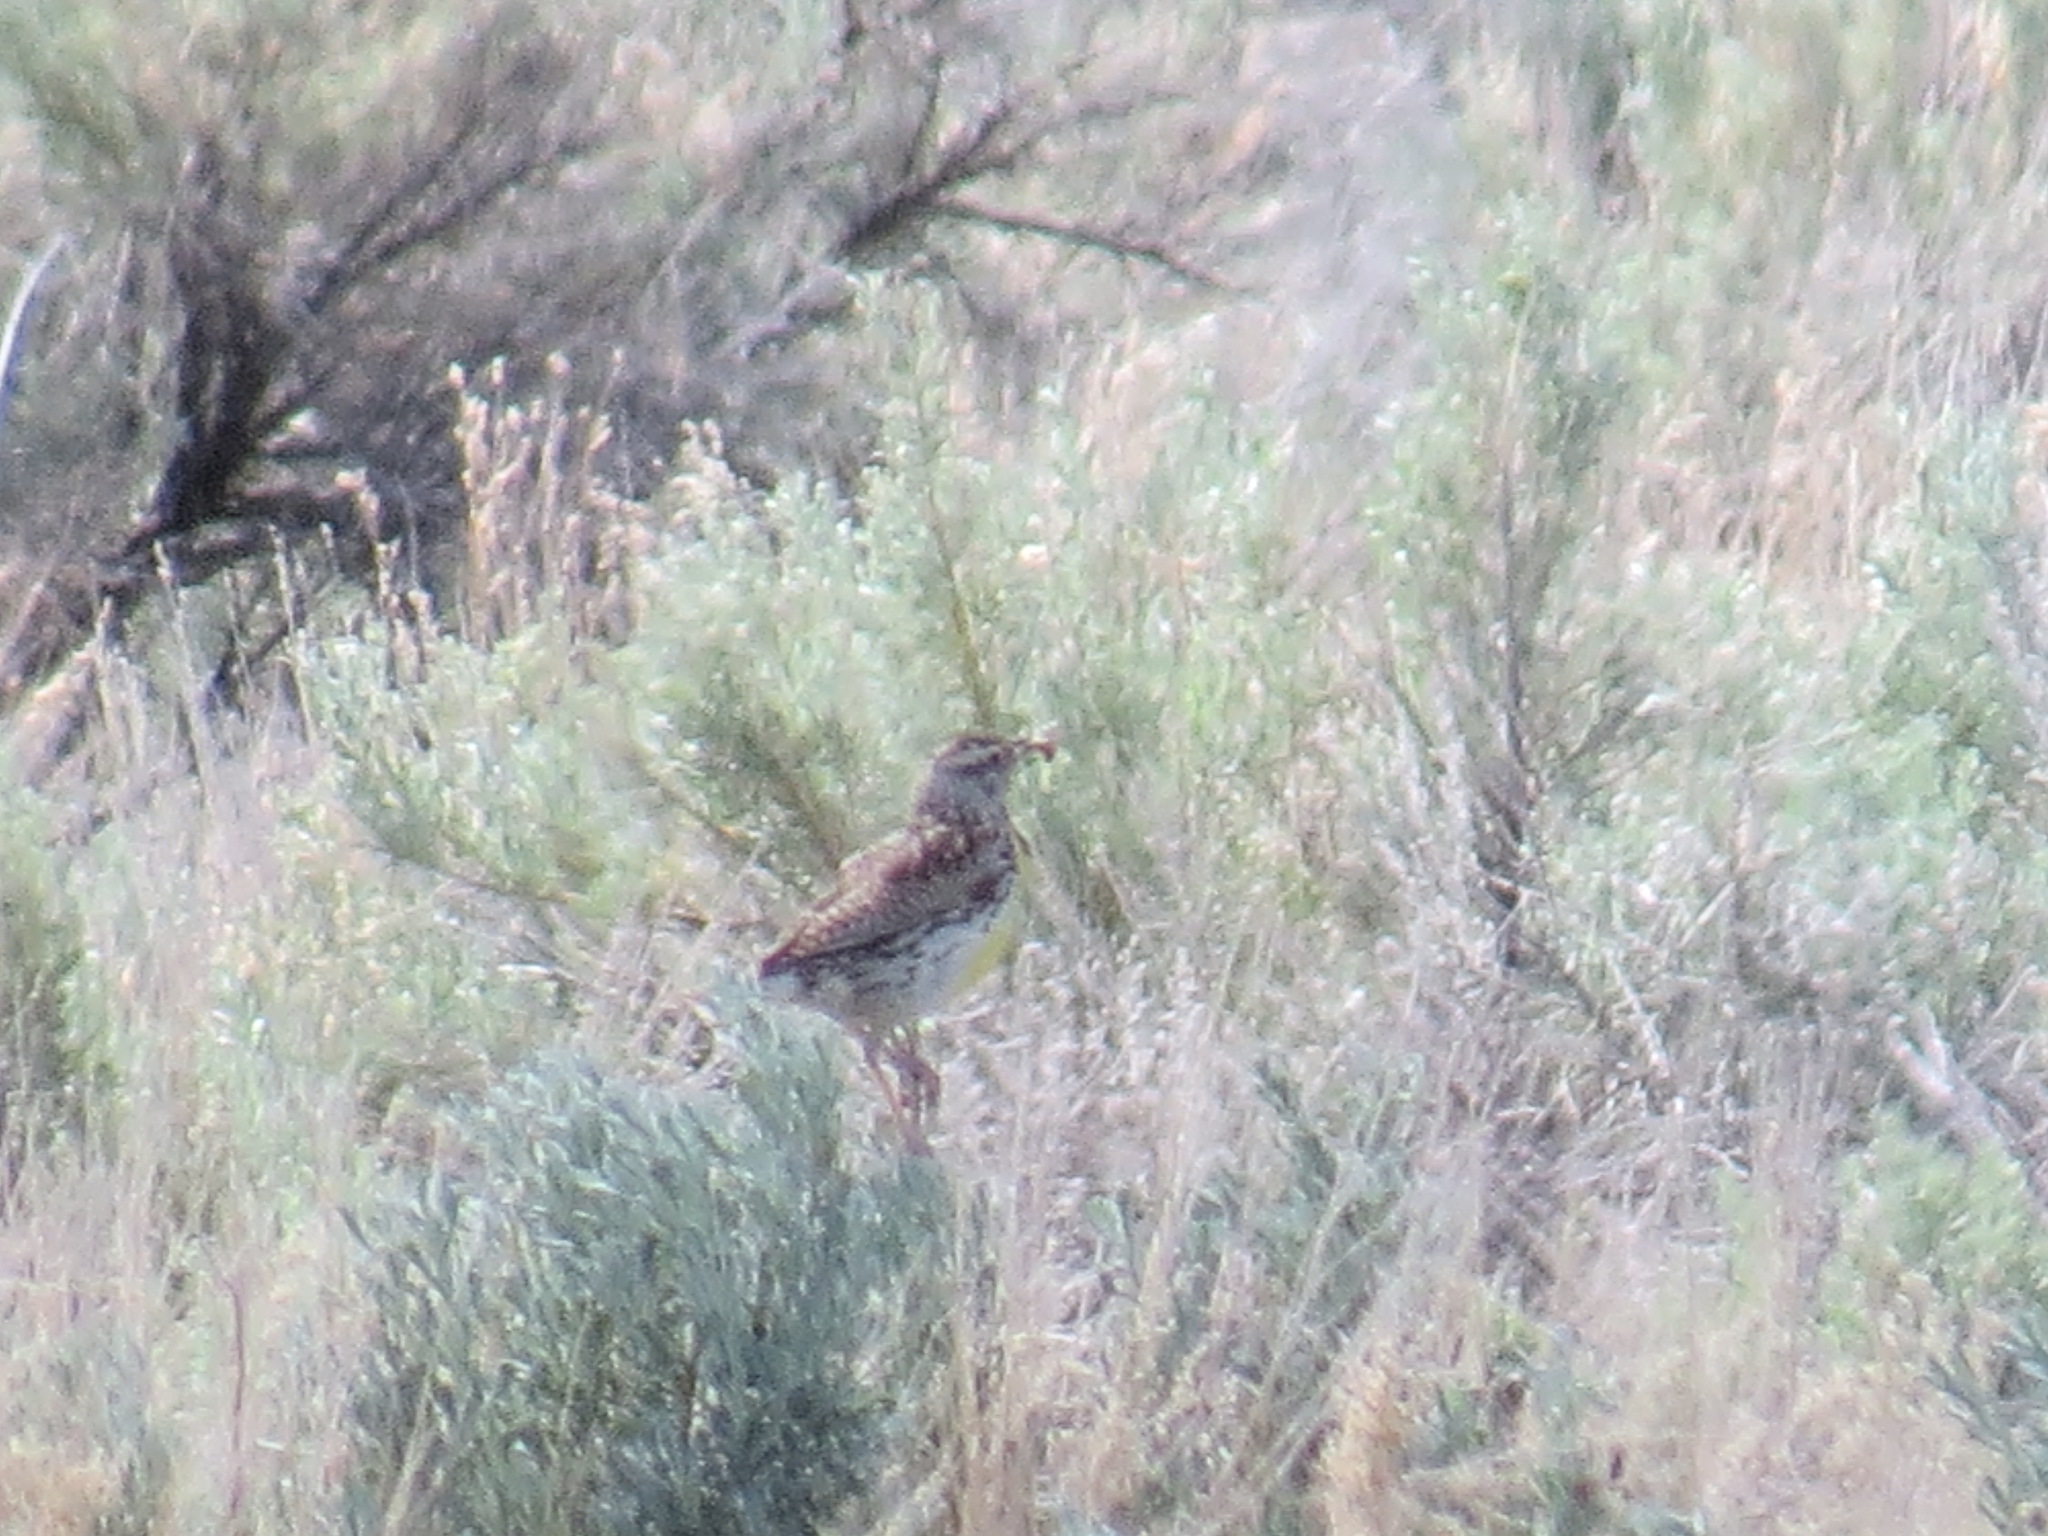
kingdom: Animalia
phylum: Chordata
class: Aves
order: Passeriformes
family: Icteridae
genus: Sturnella
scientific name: Sturnella neglecta
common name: Western meadowlark
